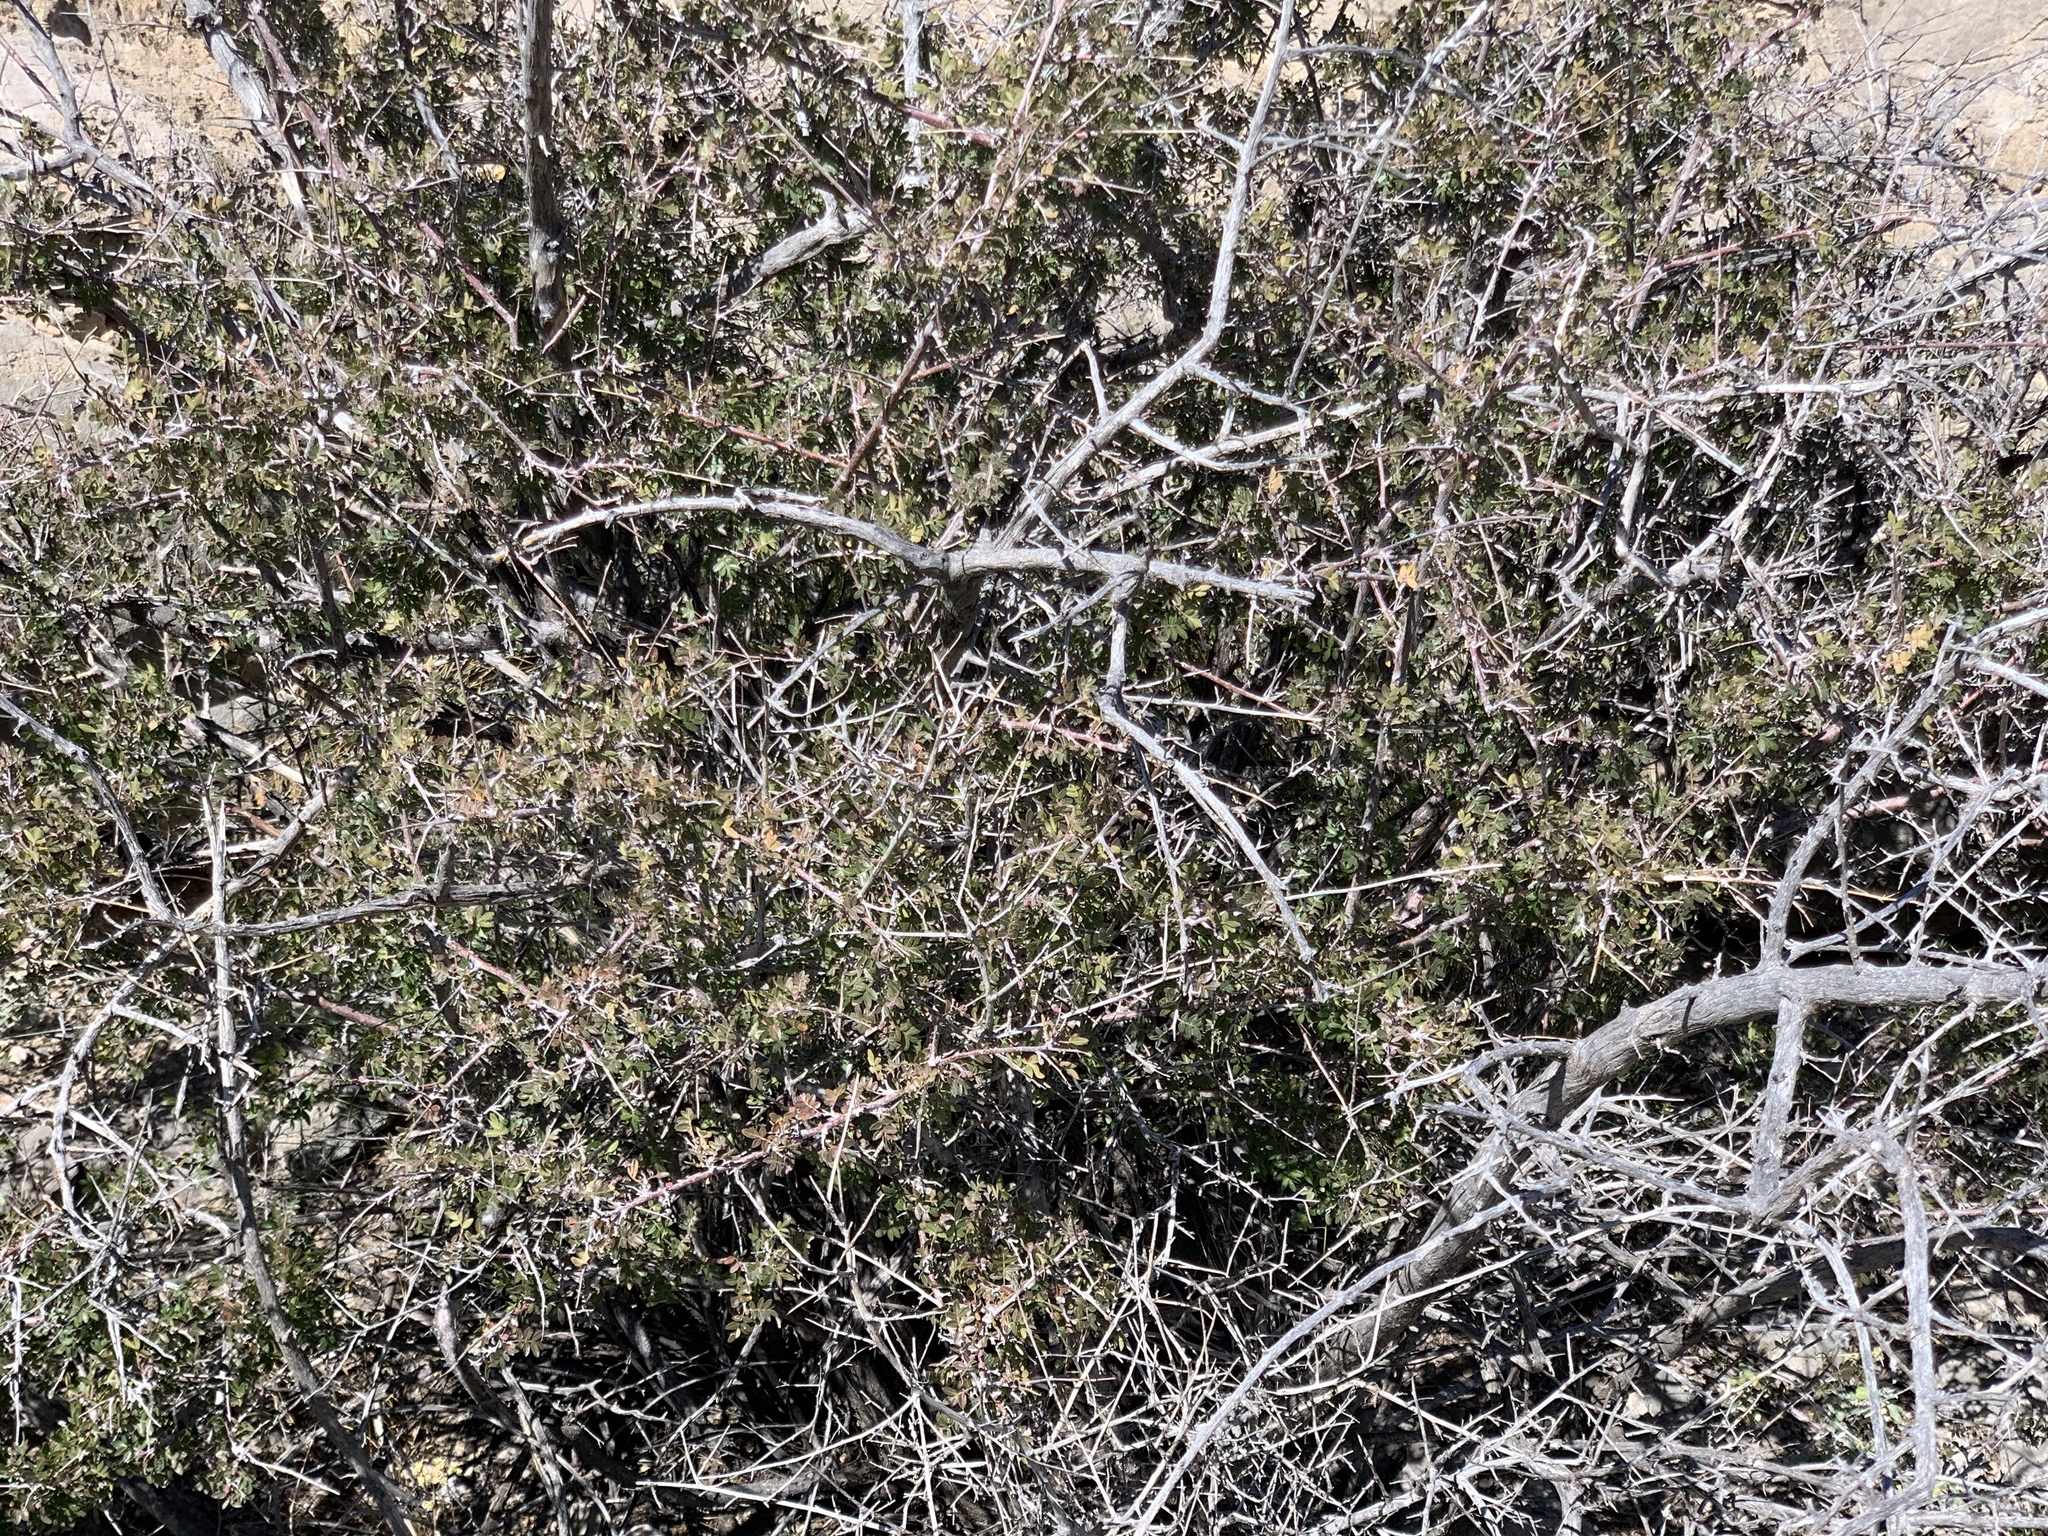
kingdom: Plantae
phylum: Tracheophyta
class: Magnoliopsida
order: Sapindales
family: Anacardiaceae
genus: Rhus
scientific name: Rhus microphylla
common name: Desert sumac
